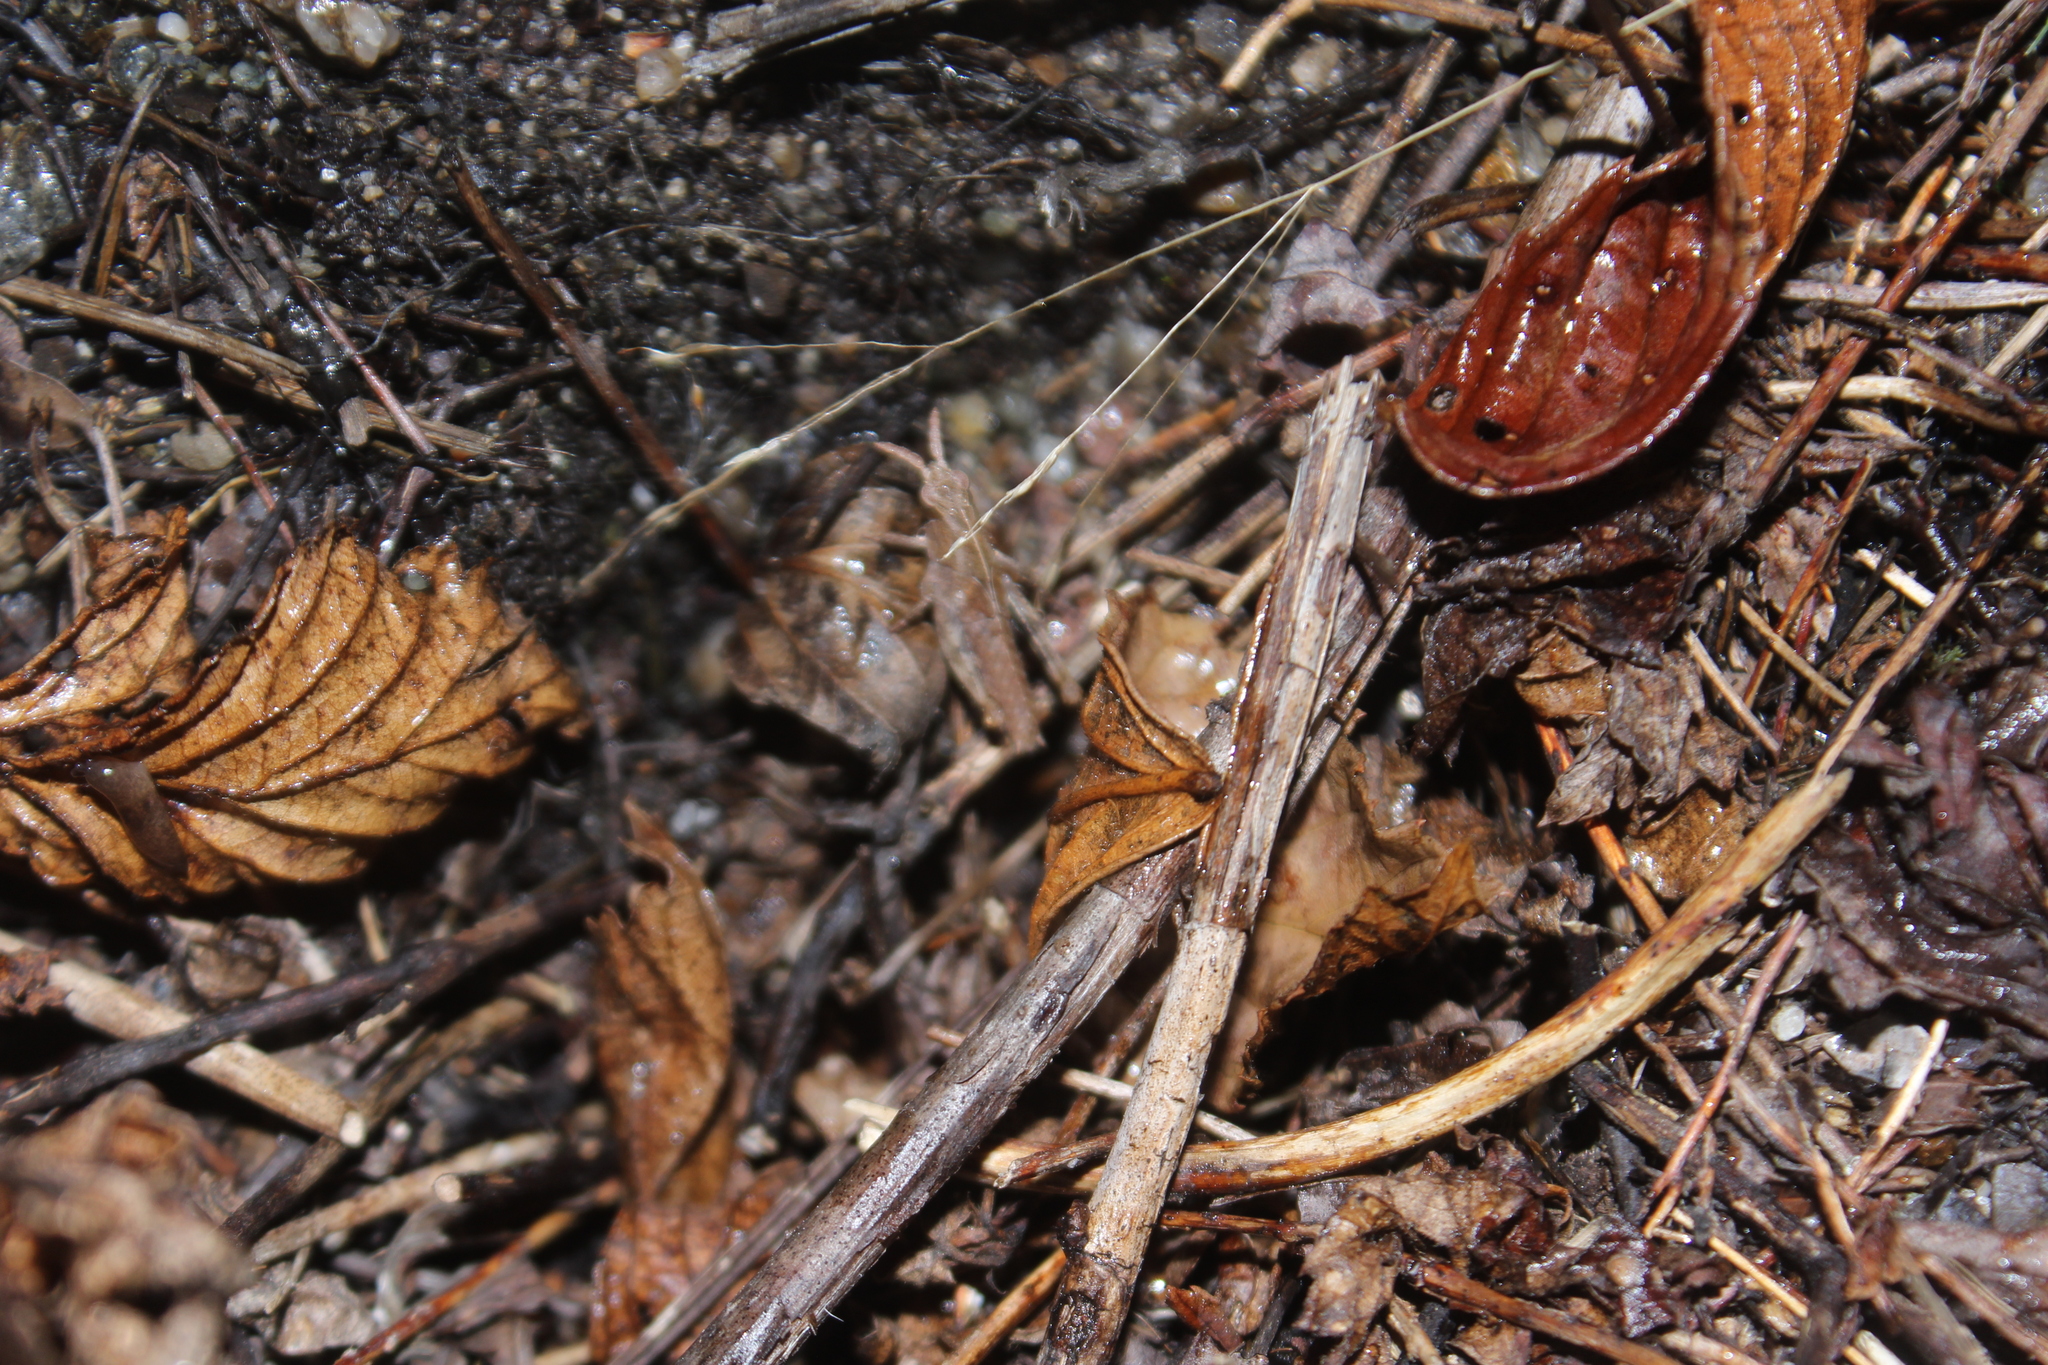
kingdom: Animalia
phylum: Arthropoda
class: Insecta
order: Orthoptera
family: Acrididae
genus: Chortophaga
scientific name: Chortophaga viridifasciata
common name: Green-striped grasshopper
